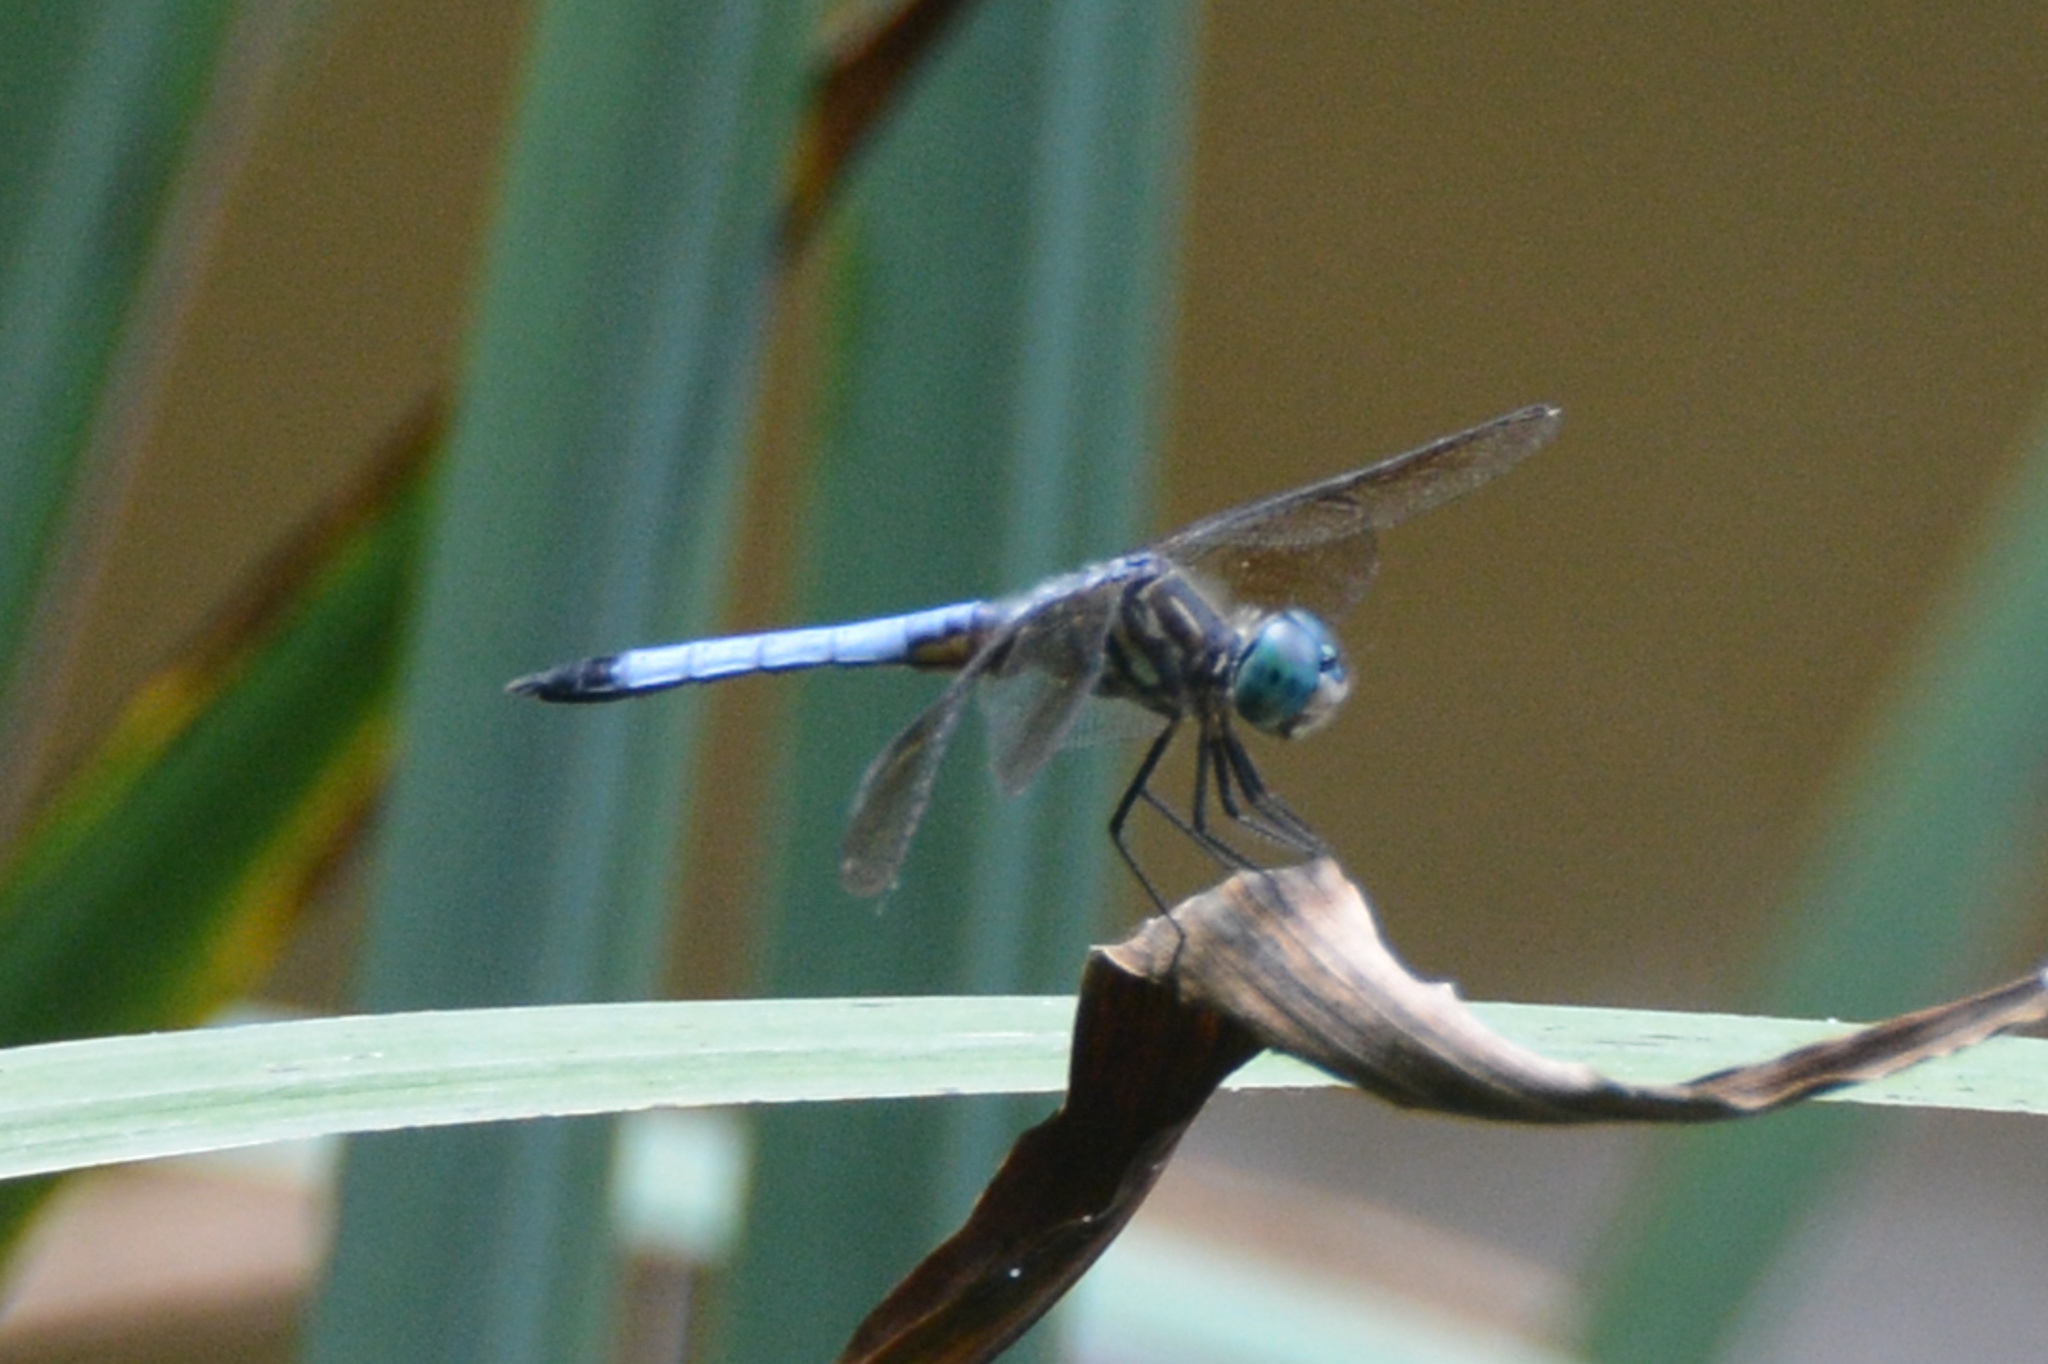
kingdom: Animalia
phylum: Arthropoda
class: Insecta
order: Odonata
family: Libellulidae
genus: Pachydiplax
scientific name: Pachydiplax longipennis
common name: Blue dasher
